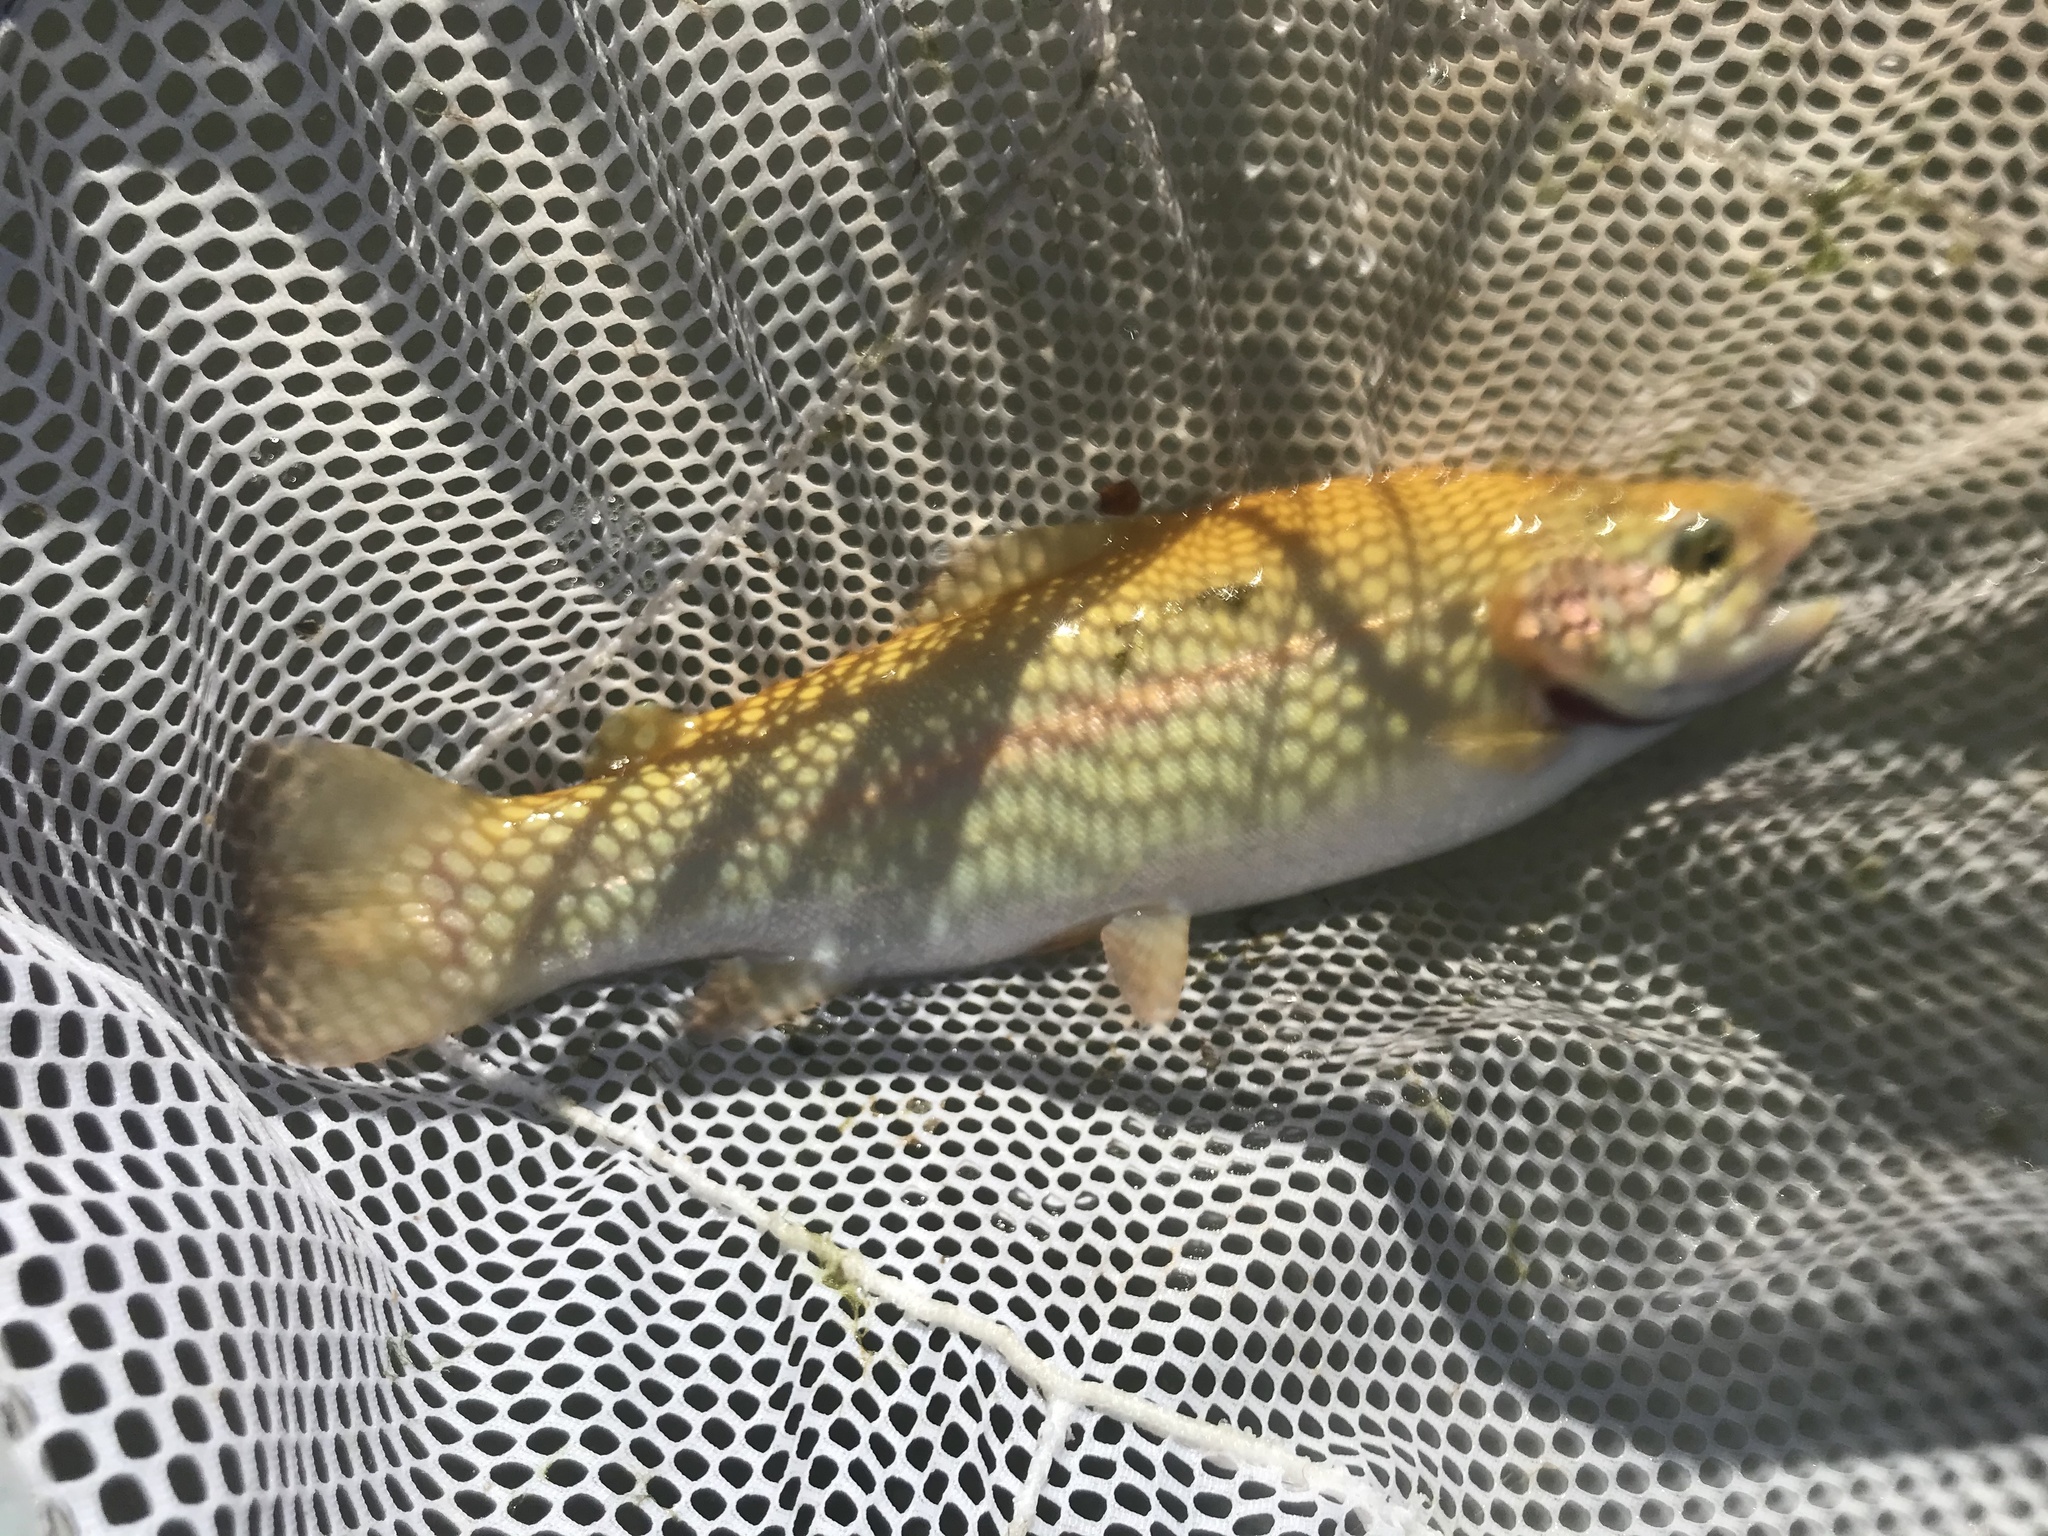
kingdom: Animalia
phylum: Chordata
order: Salmoniformes
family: Salmonidae
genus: Oncorhynchus
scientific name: Oncorhynchus mykiss
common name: Rainbow trout
